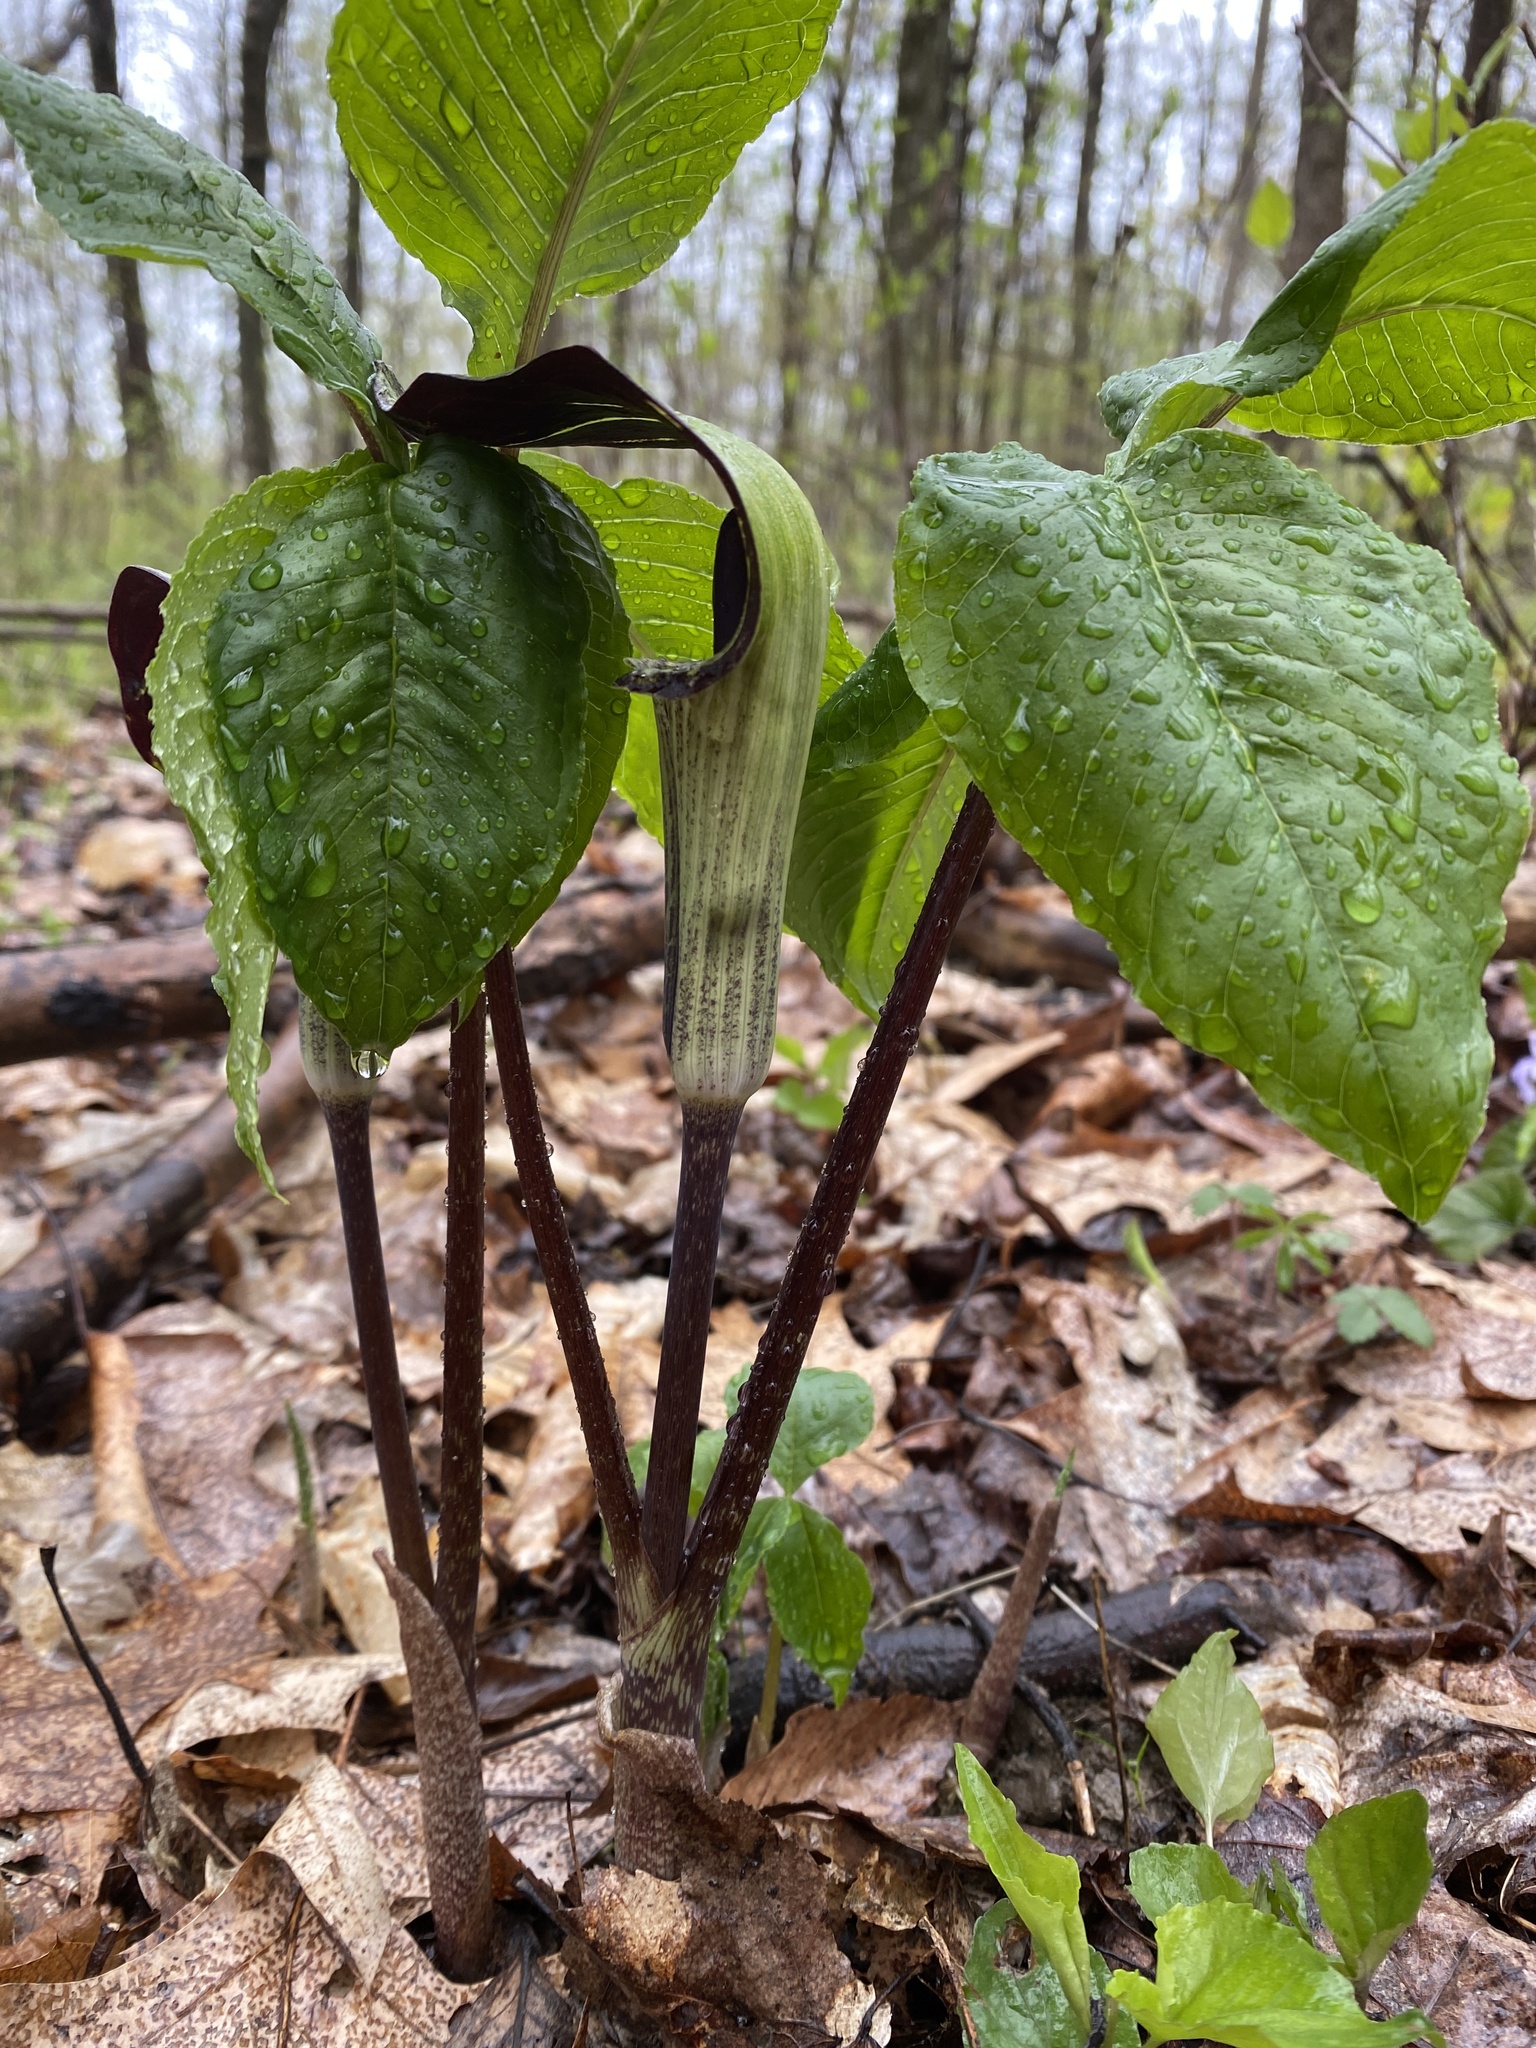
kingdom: Plantae
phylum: Tracheophyta
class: Liliopsida
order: Alismatales
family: Araceae
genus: Arisaema
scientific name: Arisaema triphyllum
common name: Jack-in-the-pulpit
